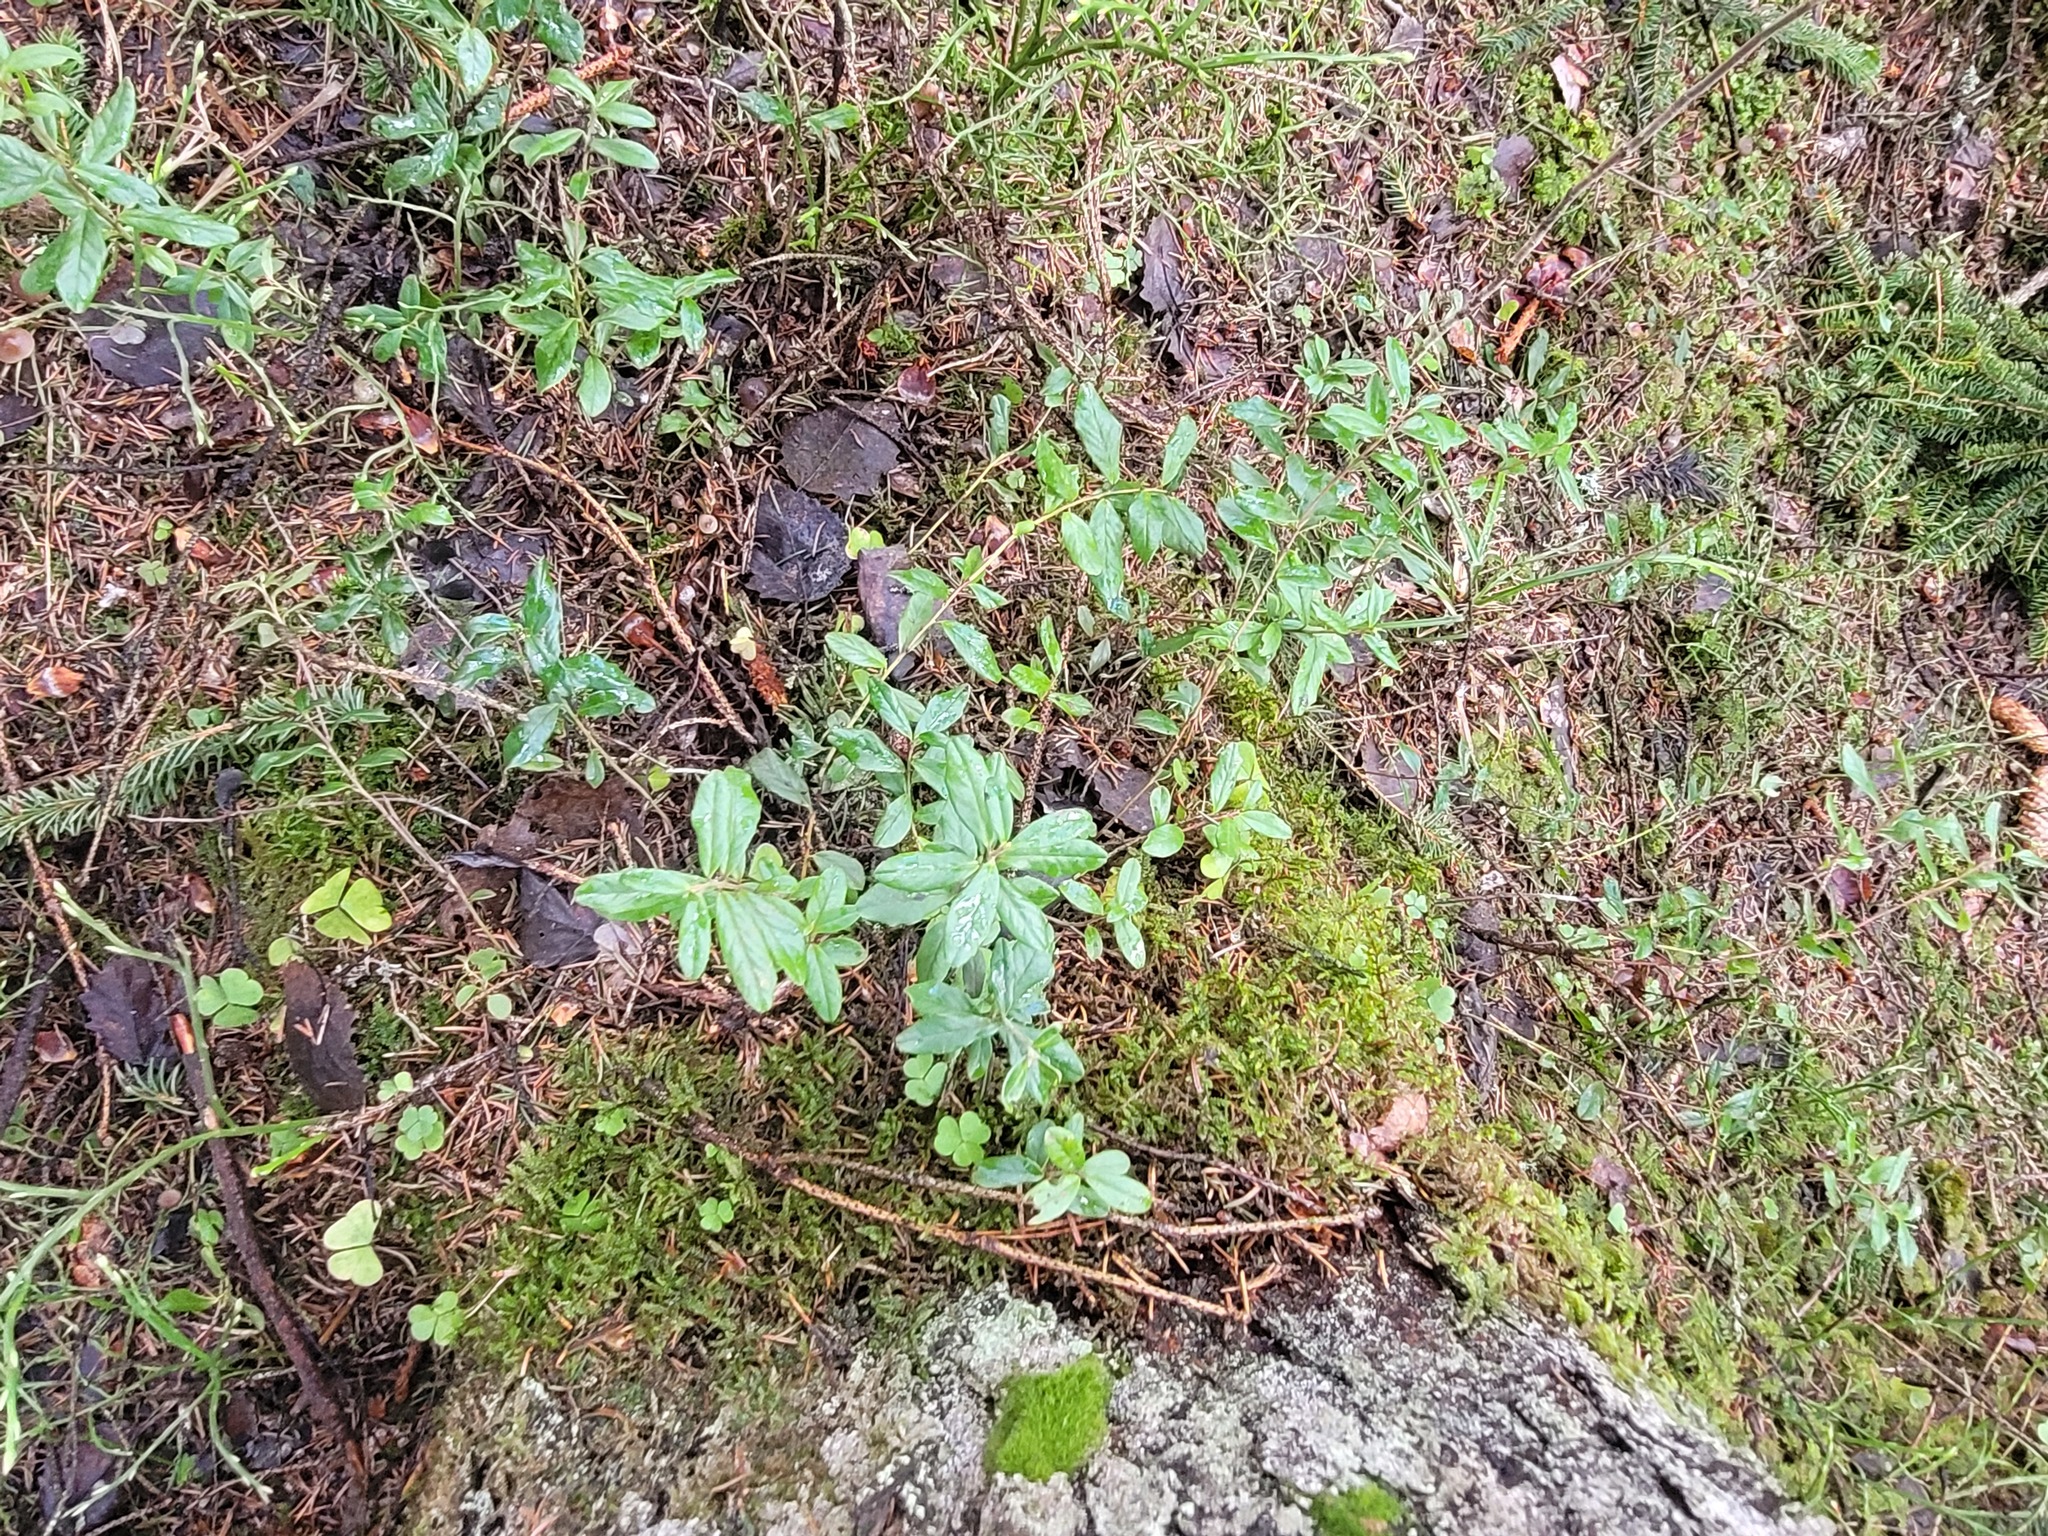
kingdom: Plantae
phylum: Tracheophyta
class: Magnoliopsida
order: Ericales
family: Ericaceae
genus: Vaccinium
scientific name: Vaccinium vitis-idaea
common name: Cowberry
